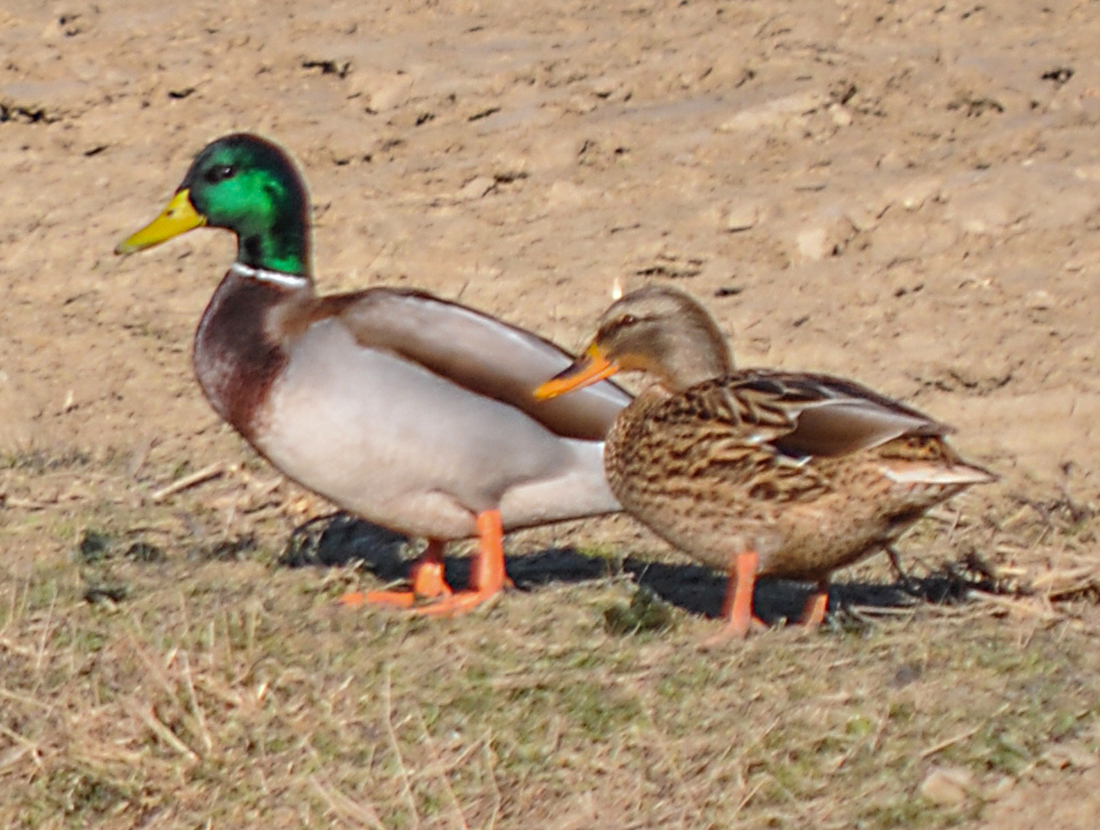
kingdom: Animalia
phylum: Chordata
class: Aves
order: Anseriformes
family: Anatidae
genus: Anas
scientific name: Anas platyrhynchos
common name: Mallard
